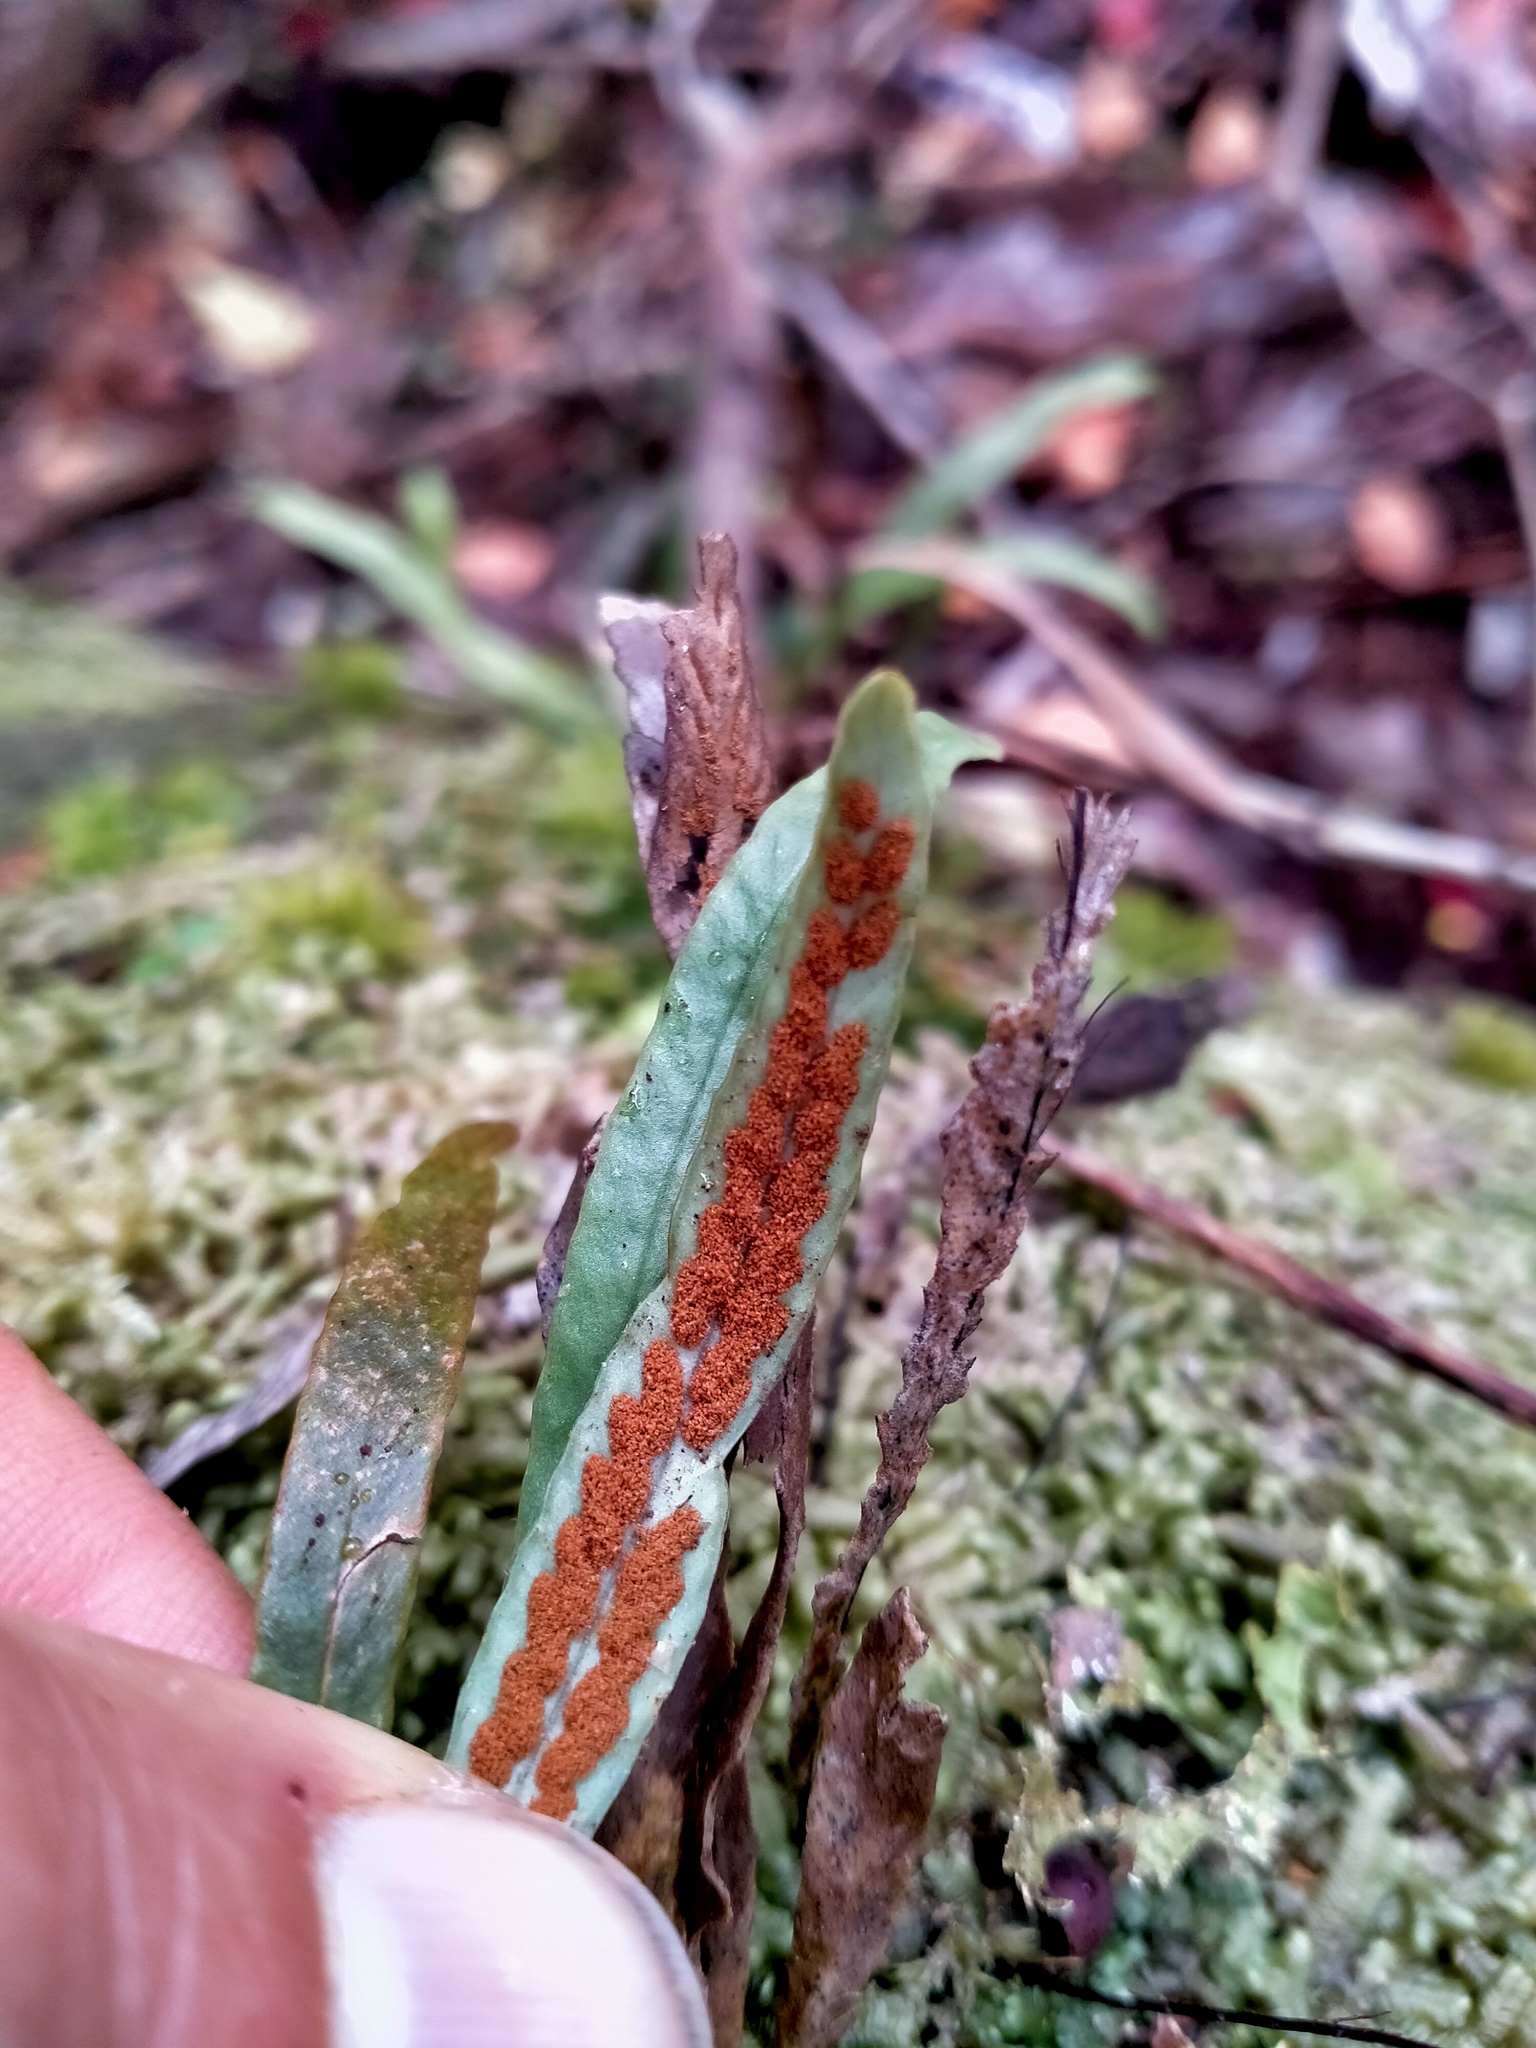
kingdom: Plantae
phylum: Tracheophyta
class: Polypodiopsida
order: Polypodiales
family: Polypodiaceae
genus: Notogrammitis
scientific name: Notogrammitis billardierei
